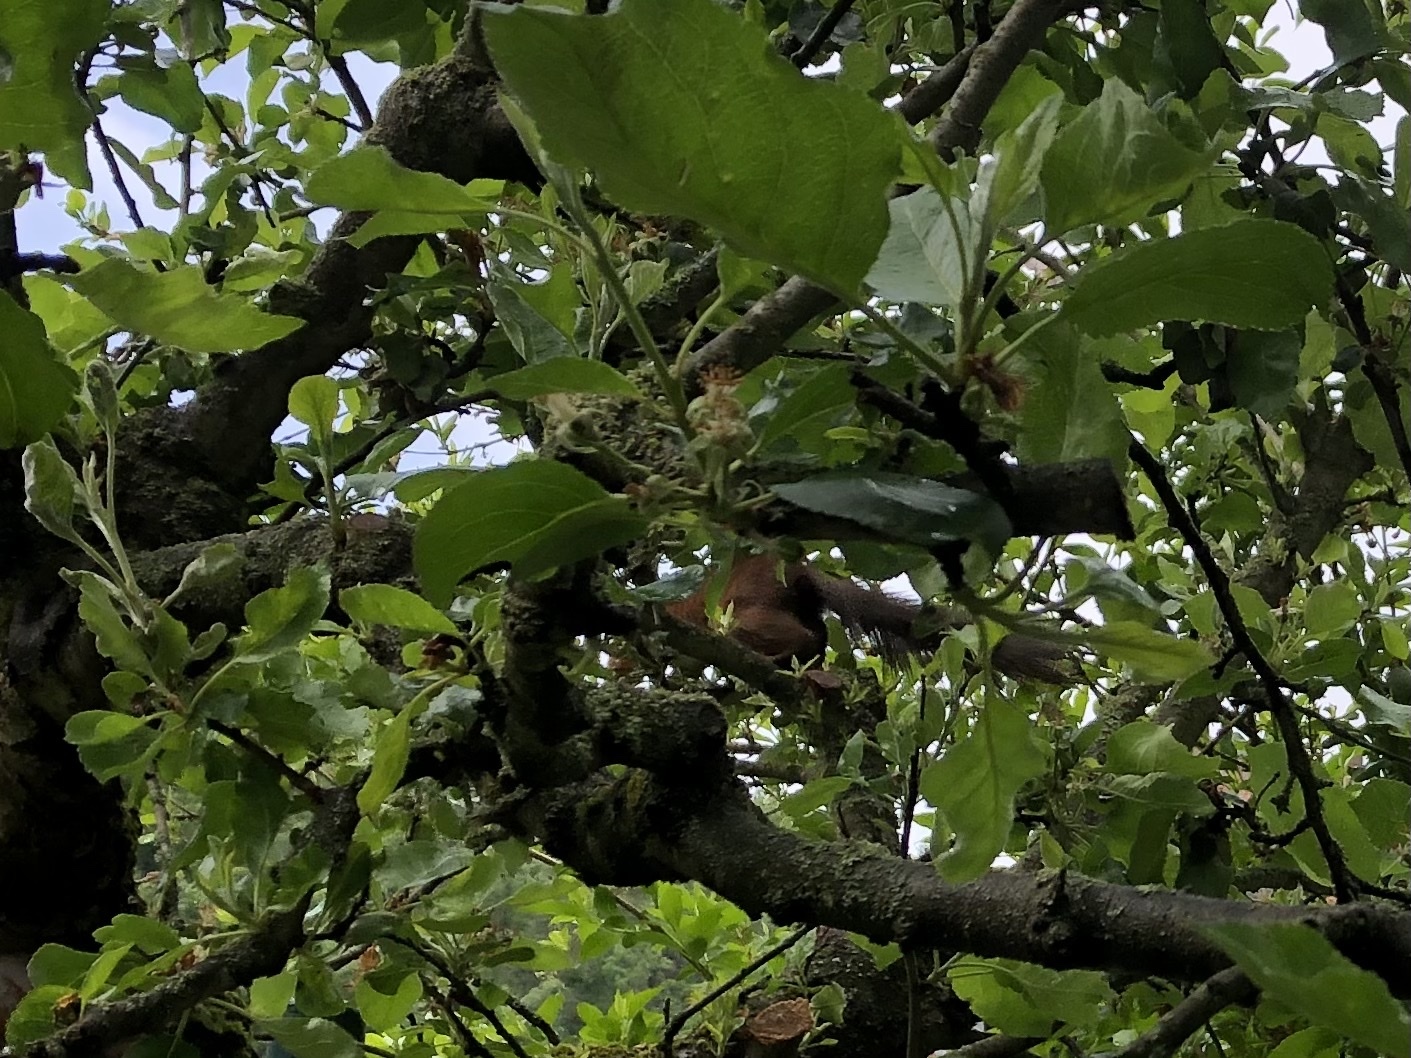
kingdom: Animalia
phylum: Chordata
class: Mammalia
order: Rodentia
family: Sciuridae
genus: Sciurus
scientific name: Sciurus vulgaris
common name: Eurasian red squirrel
